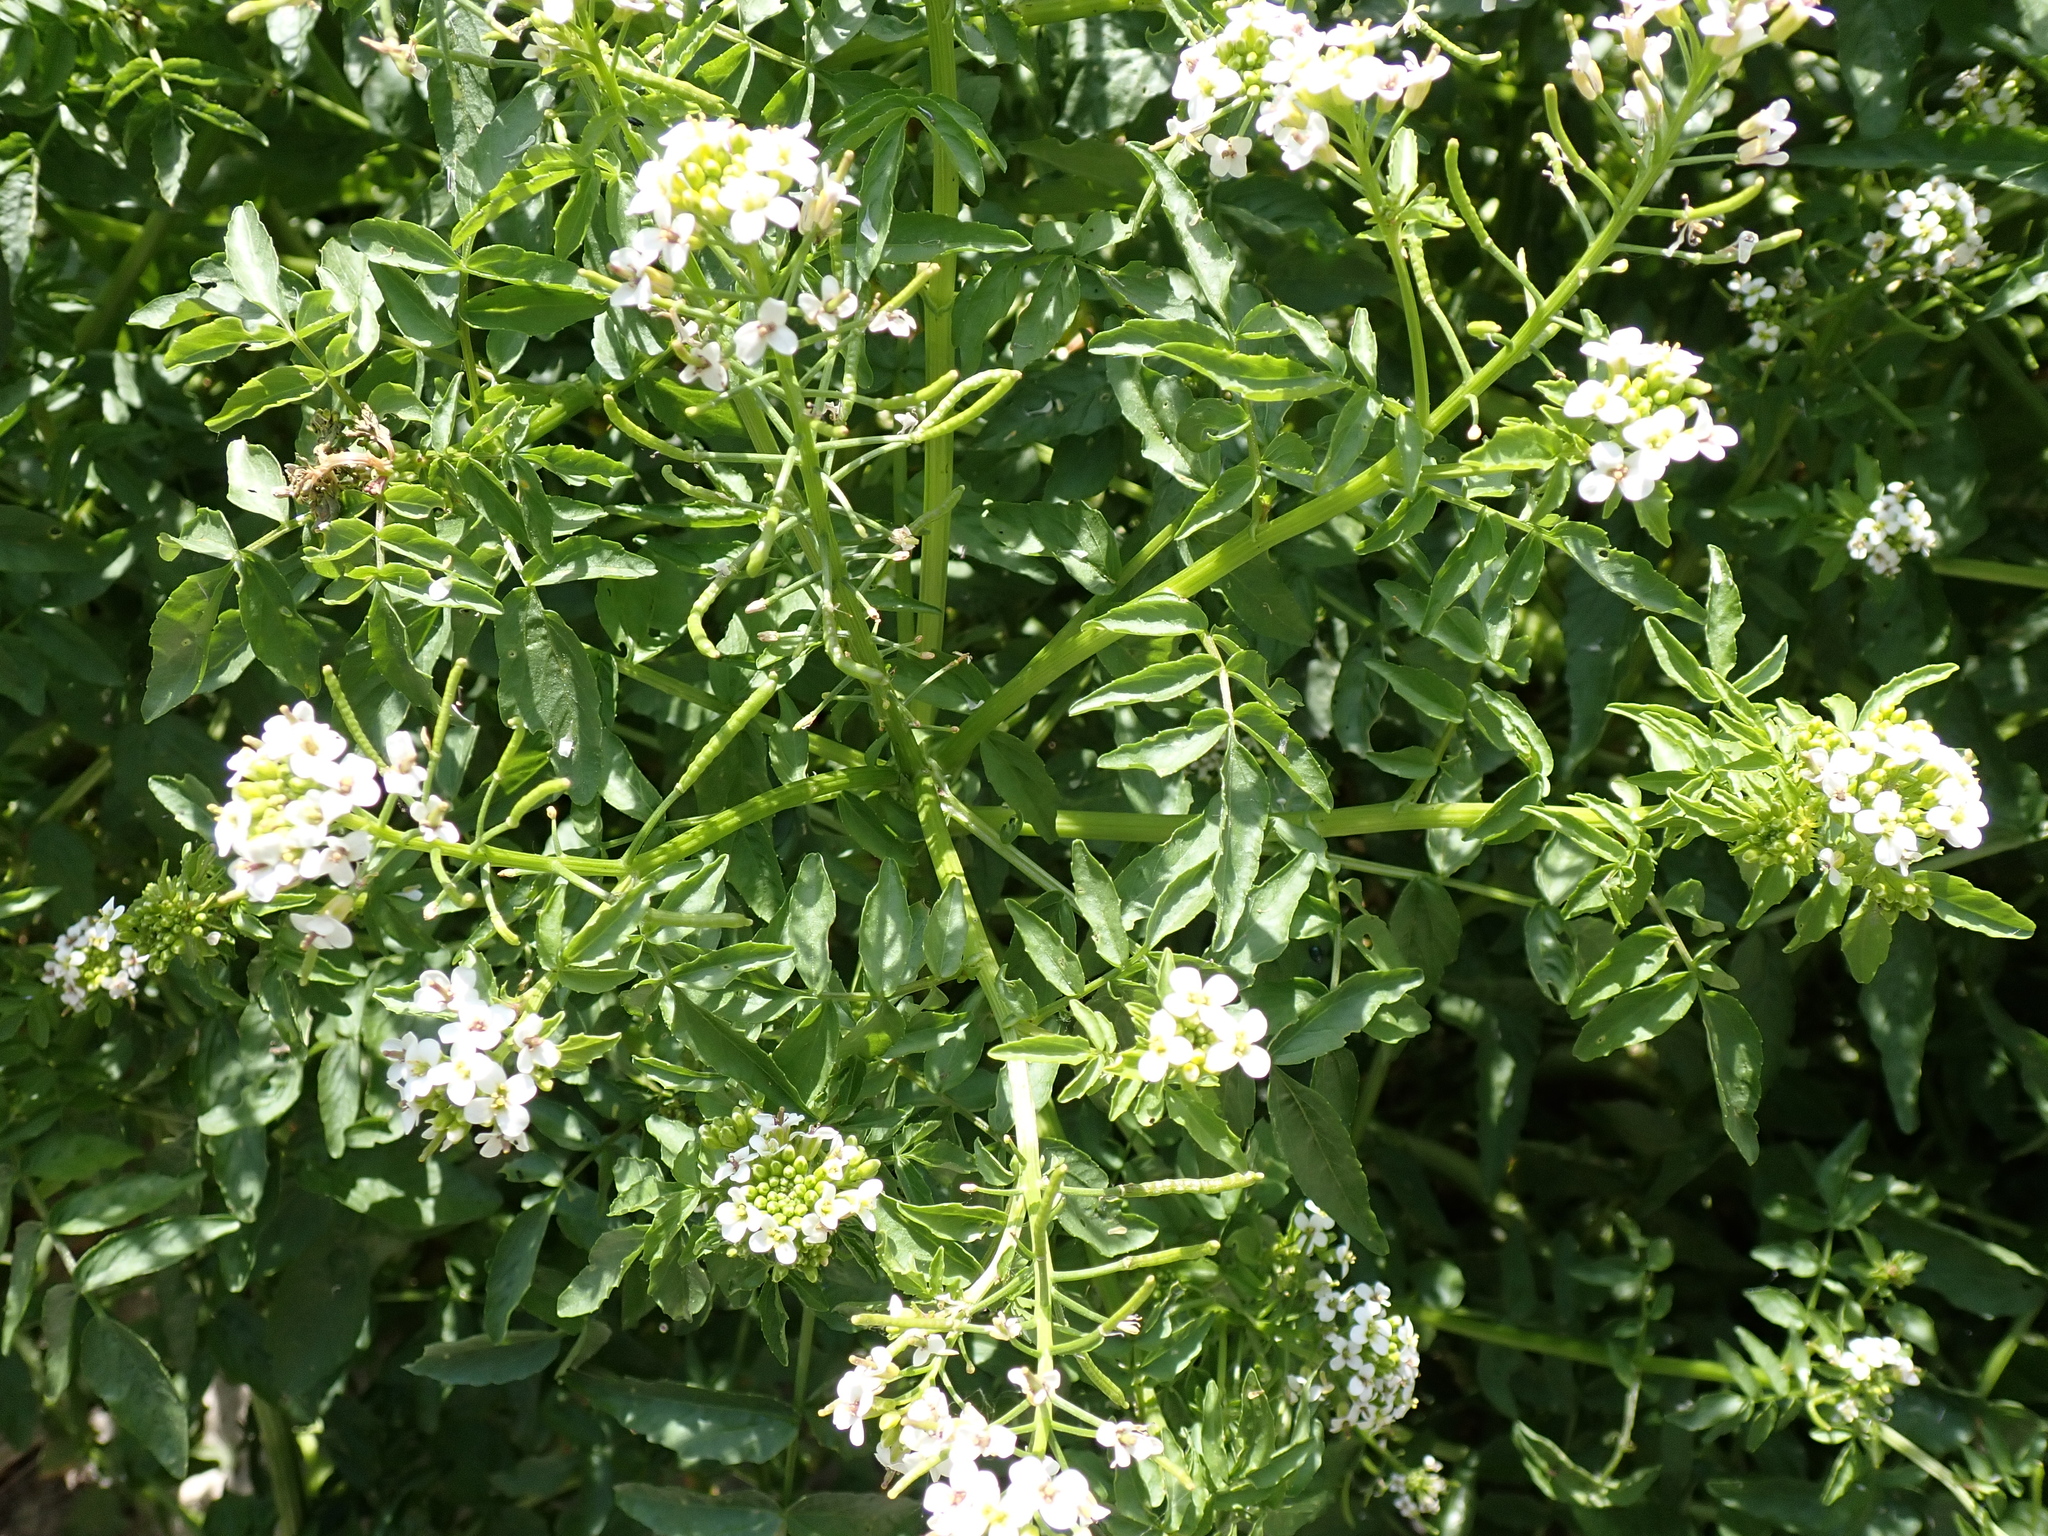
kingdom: Plantae
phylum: Tracheophyta
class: Magnoliopsida
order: Brassicales
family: Brassicaceae
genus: Nasturtium
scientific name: Nasturtium officinale
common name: Watercress
